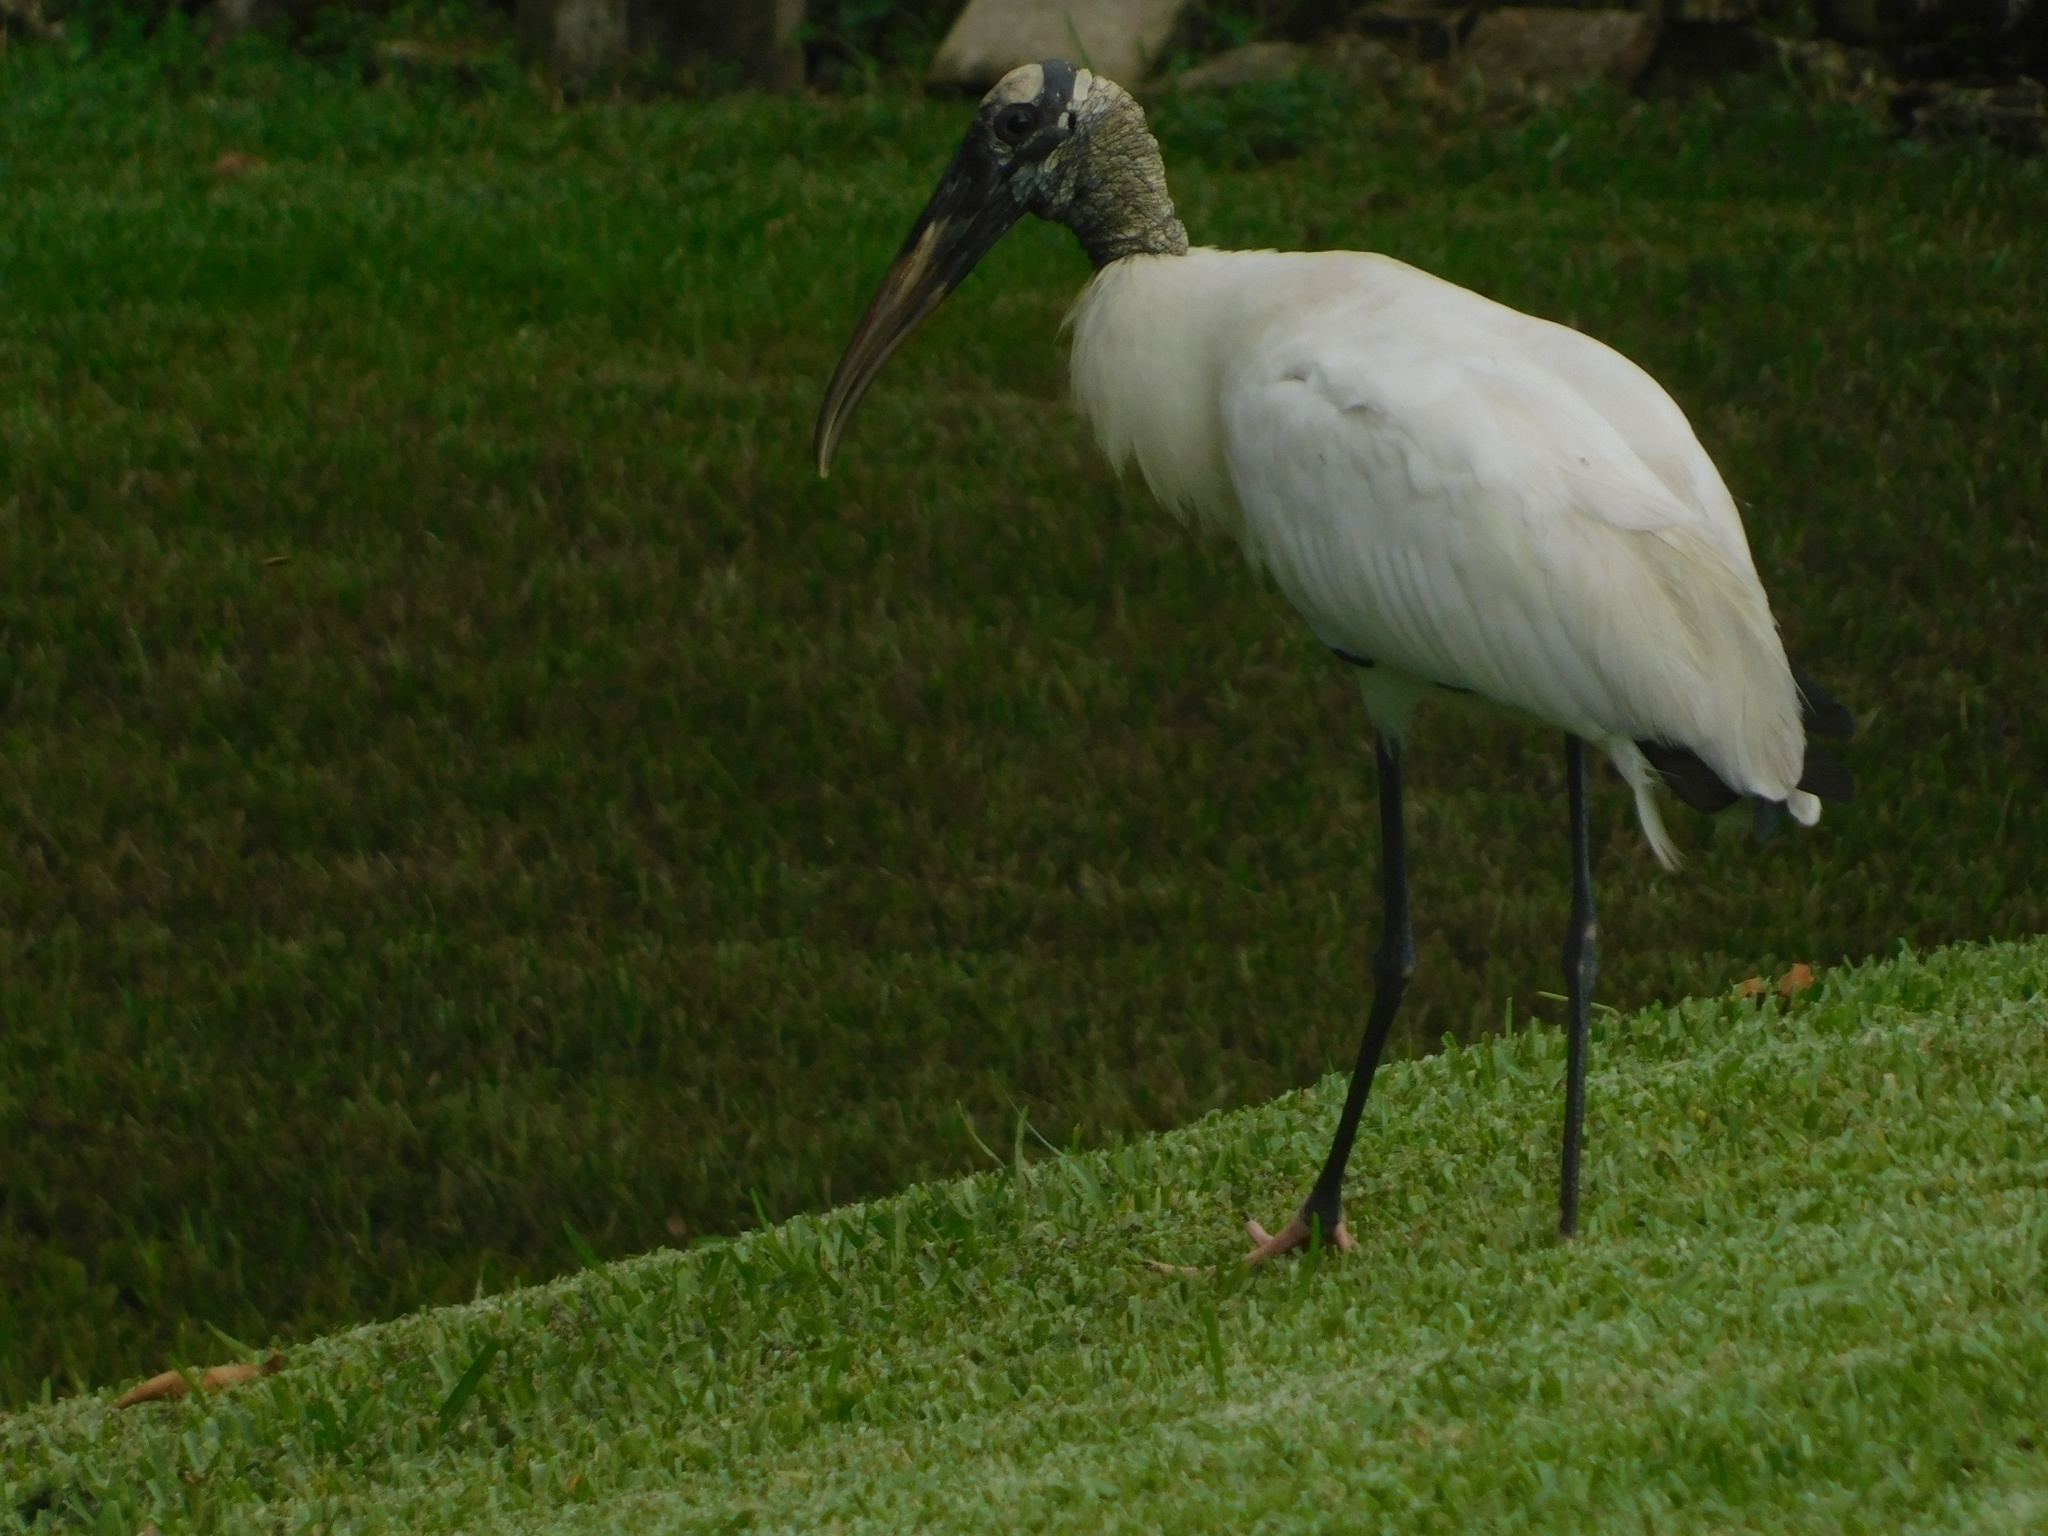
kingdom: Animalia
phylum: Chordata
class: Aves
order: Ciconiiformes
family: Ciconiidae
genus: Mycteria
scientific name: Mycteria americana
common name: Wood stork
